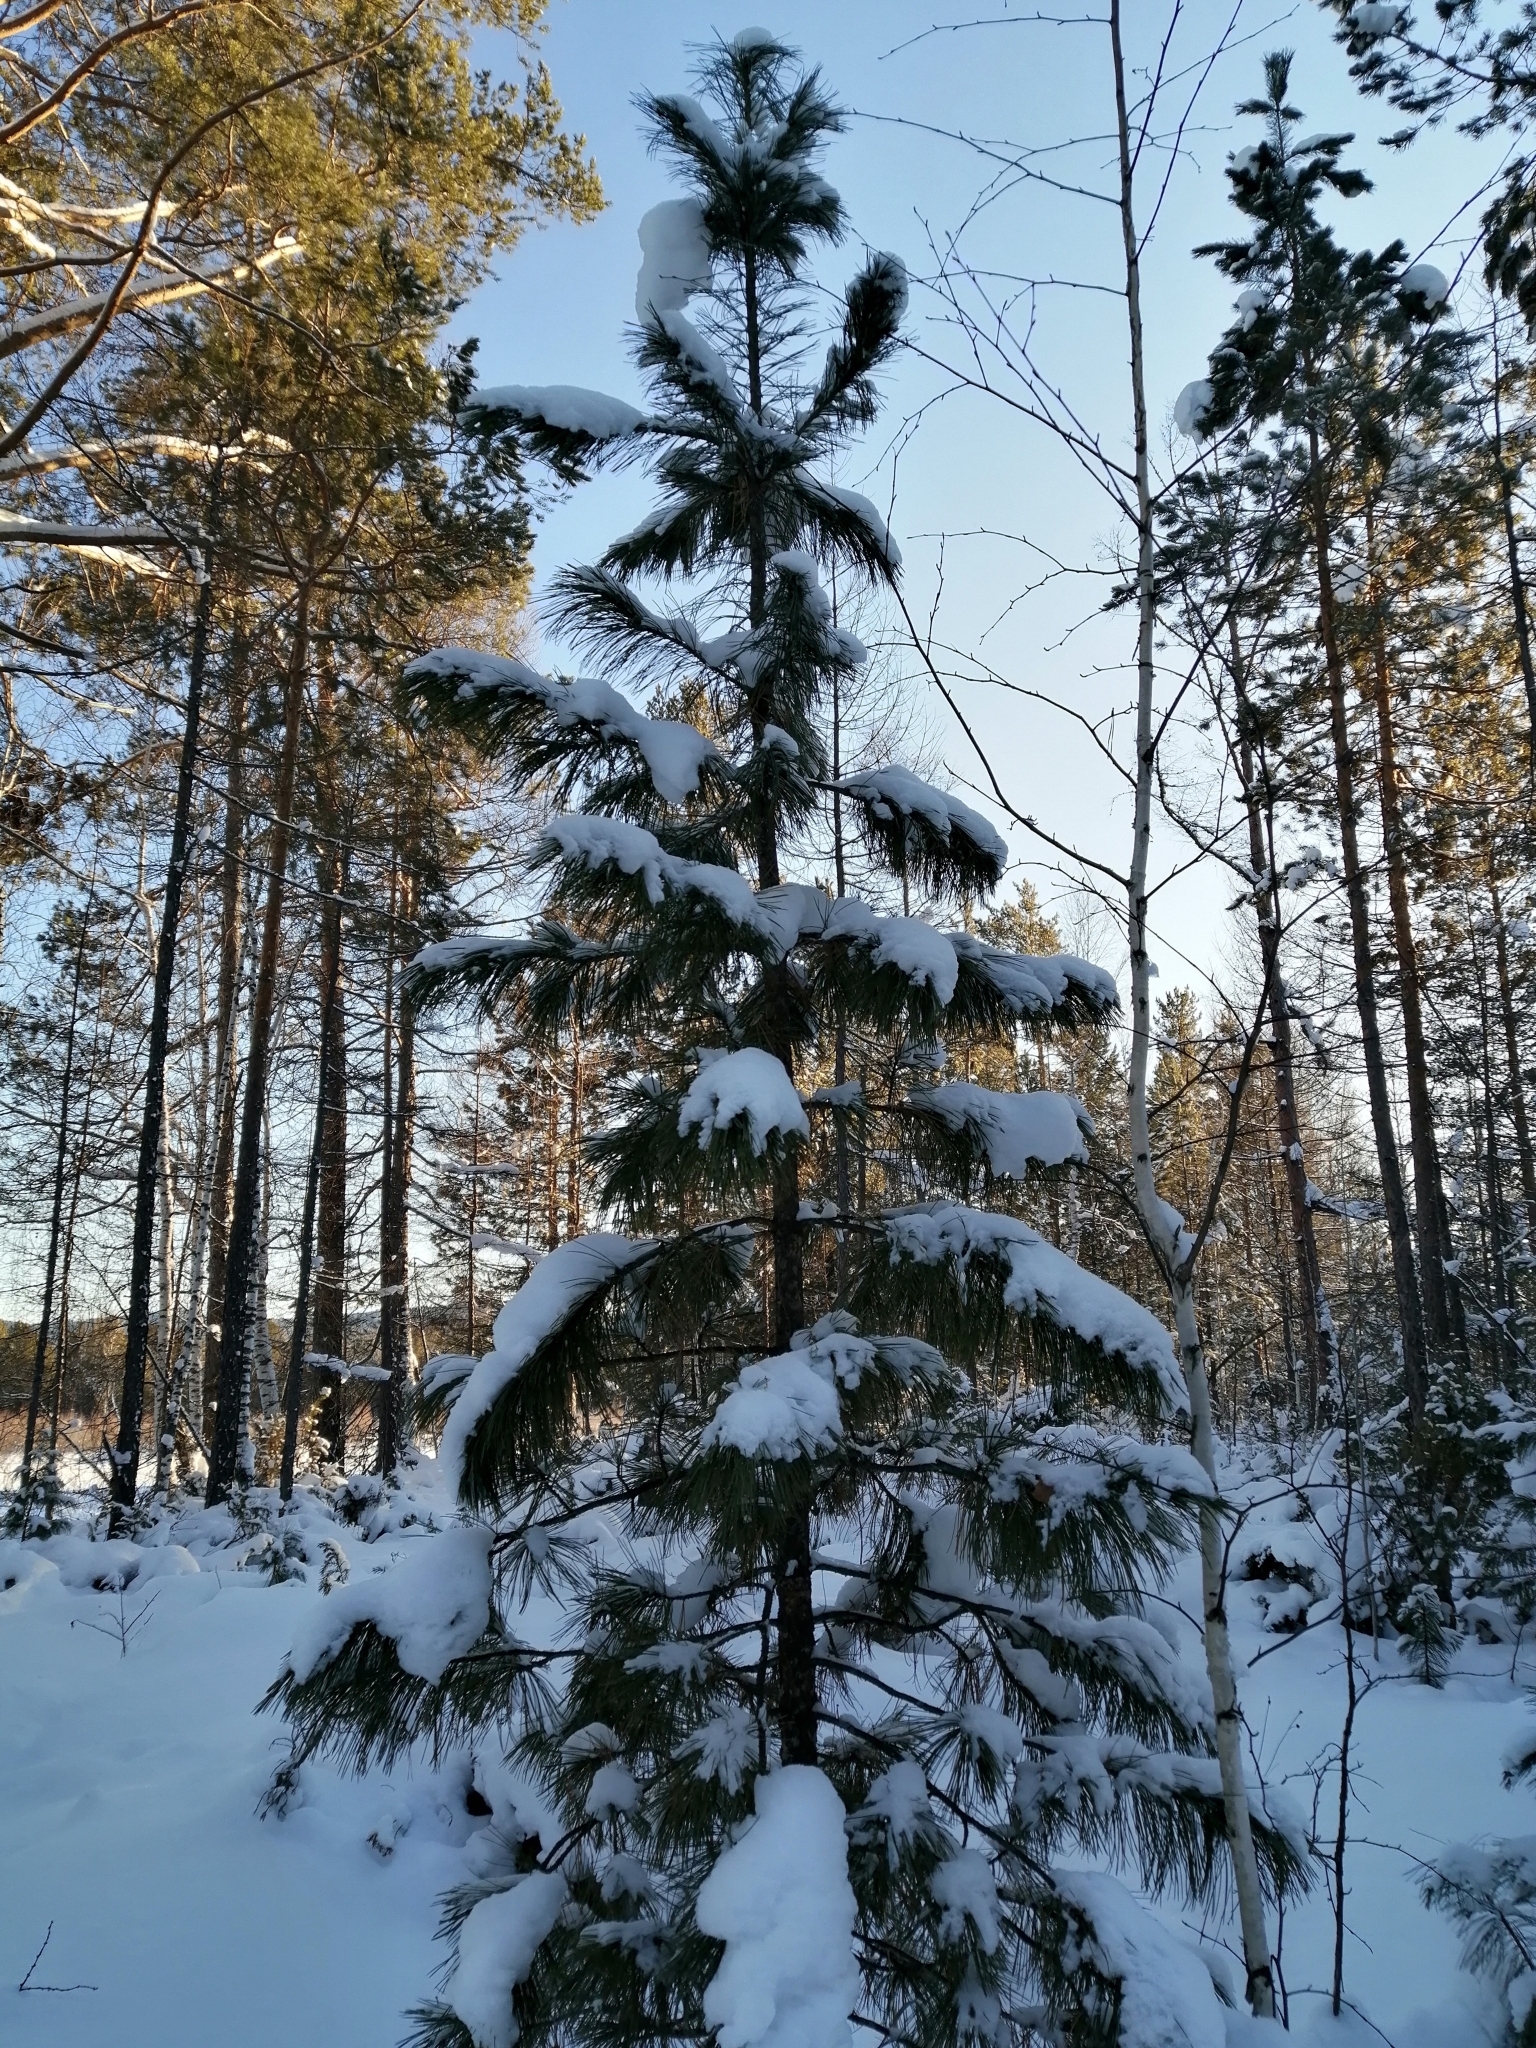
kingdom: Plantae
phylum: Tracheophyta
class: Pinopsida
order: Pinales
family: Pinaceae
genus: Pinus
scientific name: Pinus sibirica
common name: Siberian pine
